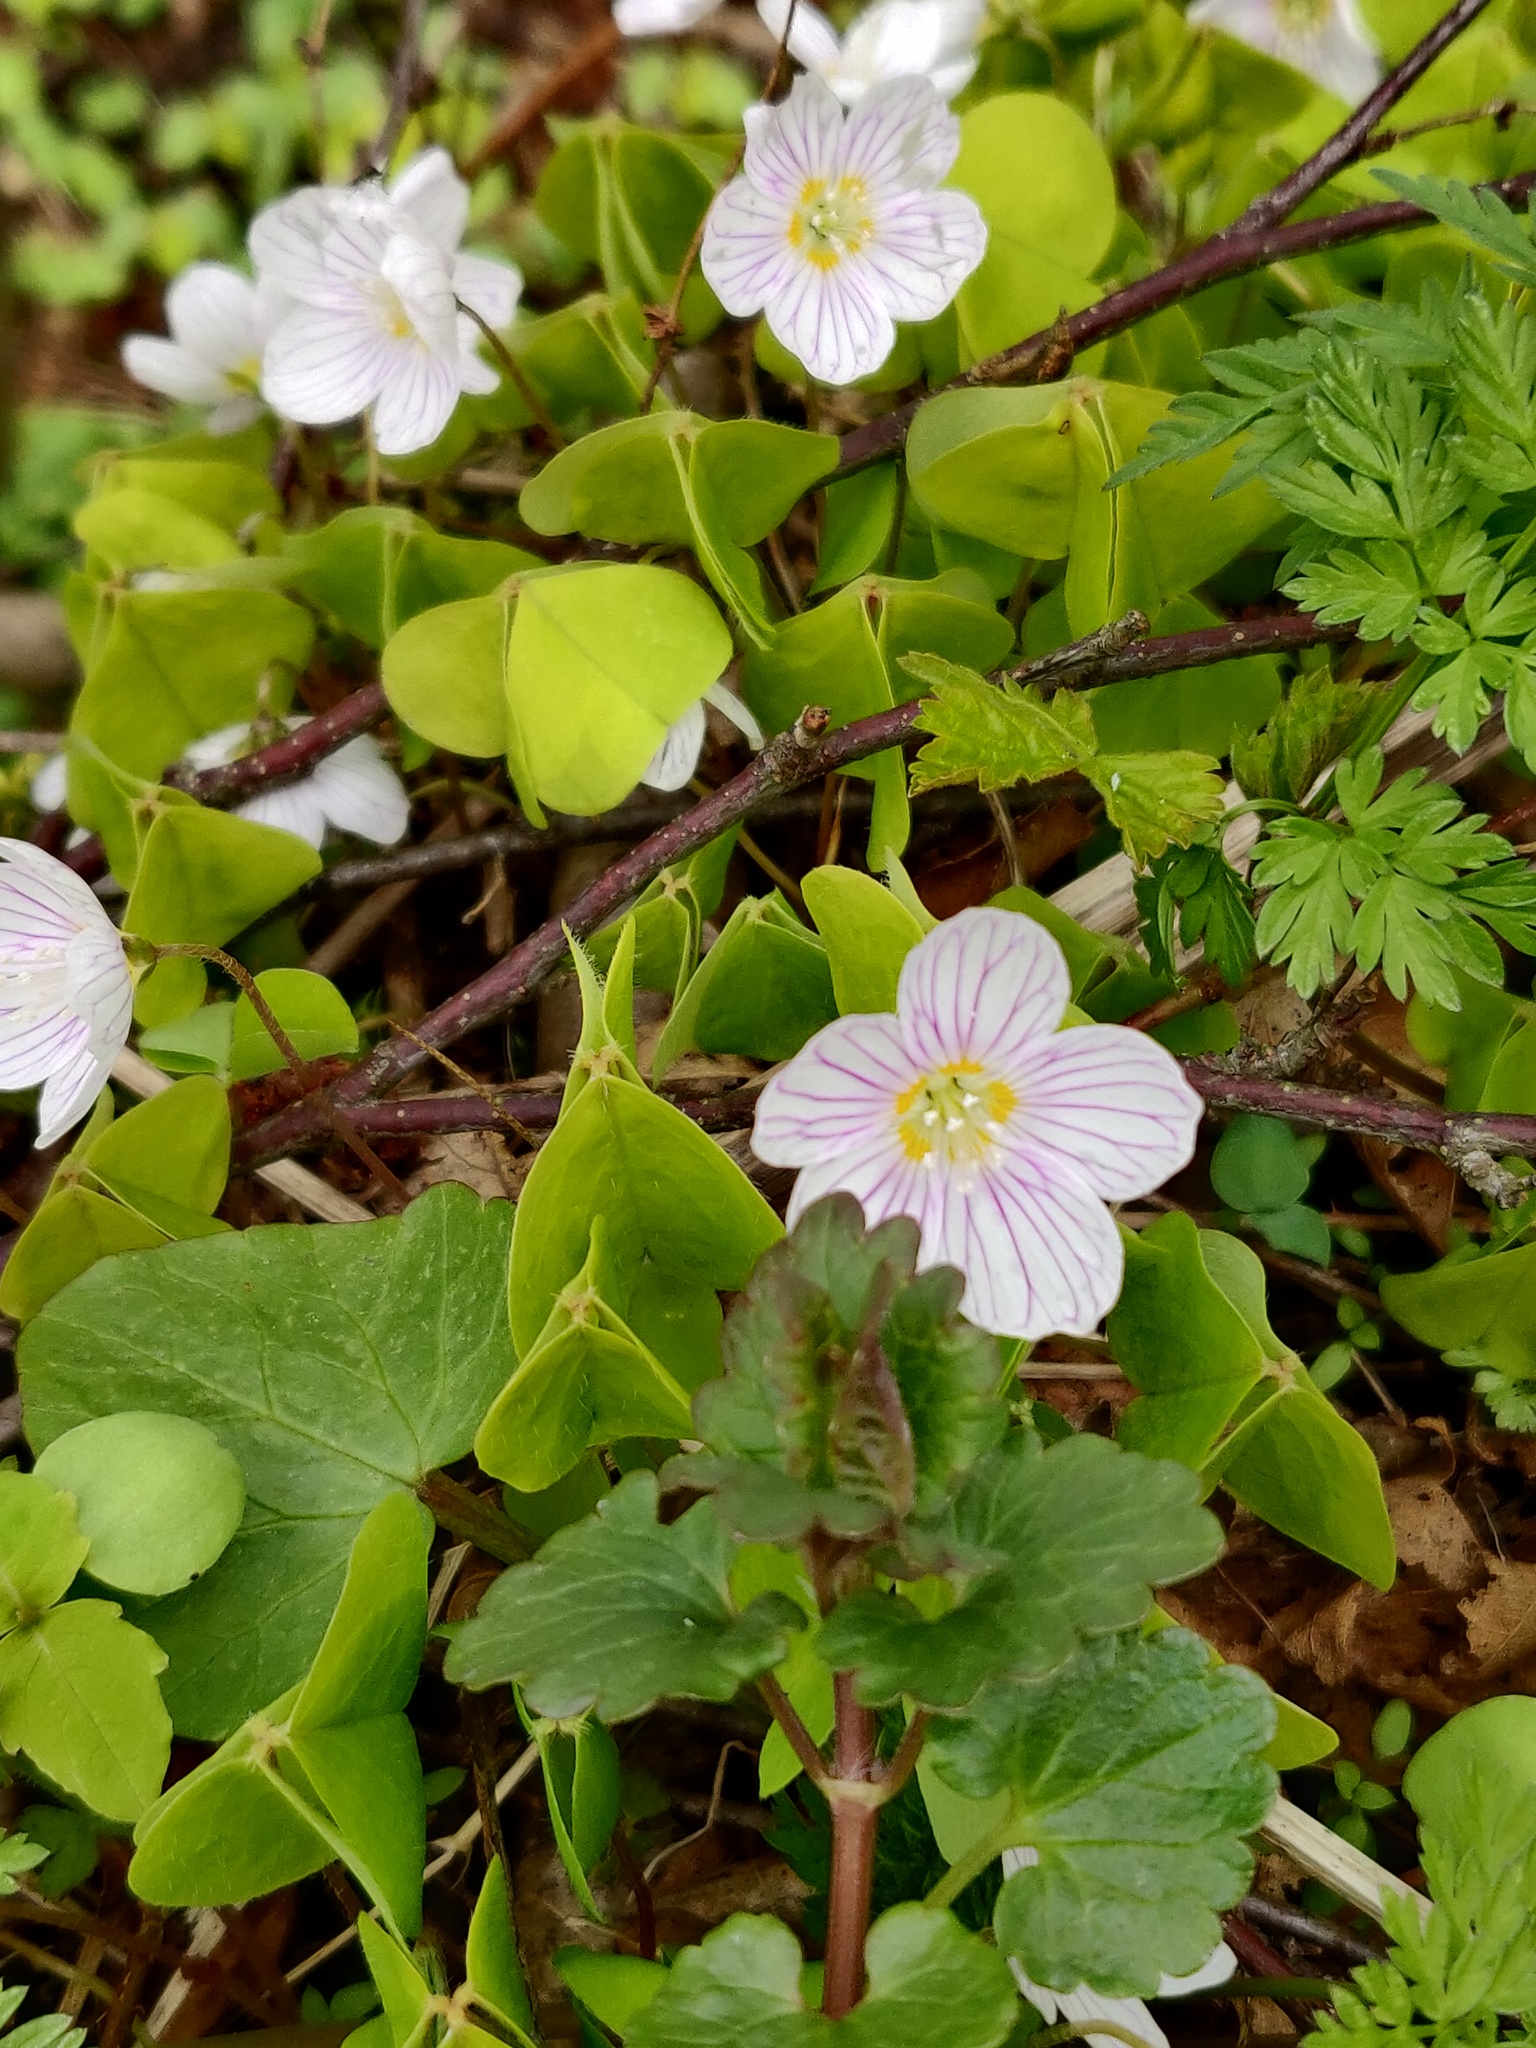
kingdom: Plantae
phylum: Tracheophyta
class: Magnoliopsida
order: Oxalidales
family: Oxalidaceae
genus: Oxalis
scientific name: Oxalis acetosella
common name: Wood-sorrel
